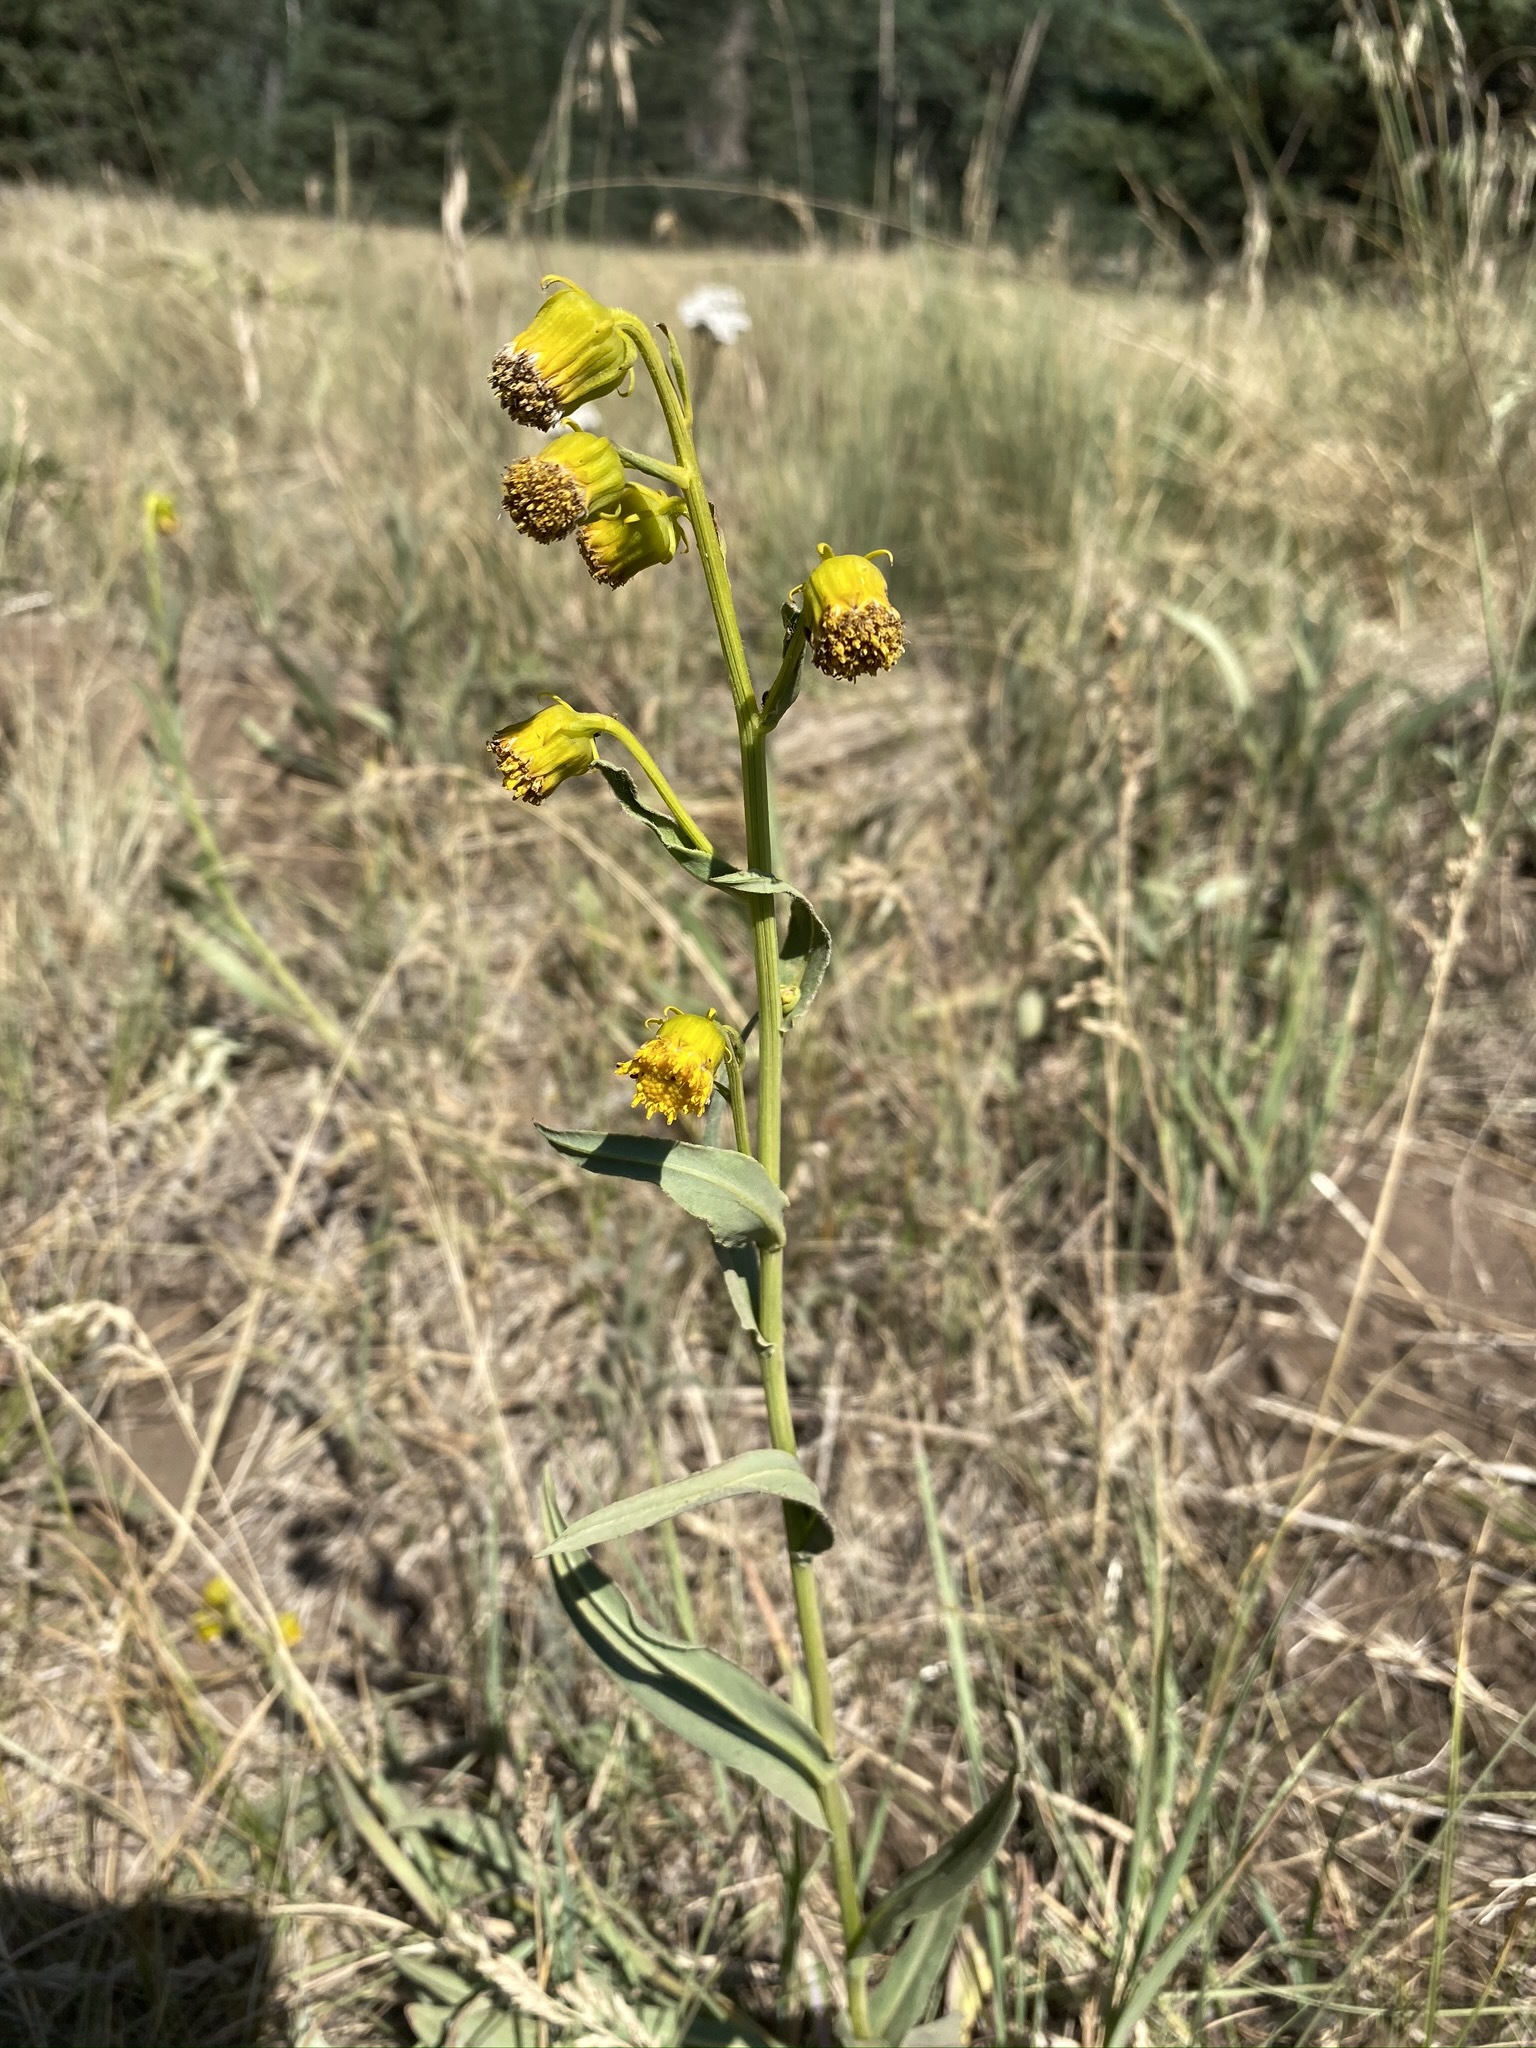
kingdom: Plantae
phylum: Tracheophyta
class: Magnoliopsida
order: Asterales
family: Asteraceae
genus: Senecio
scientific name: Senecio bigelovii
